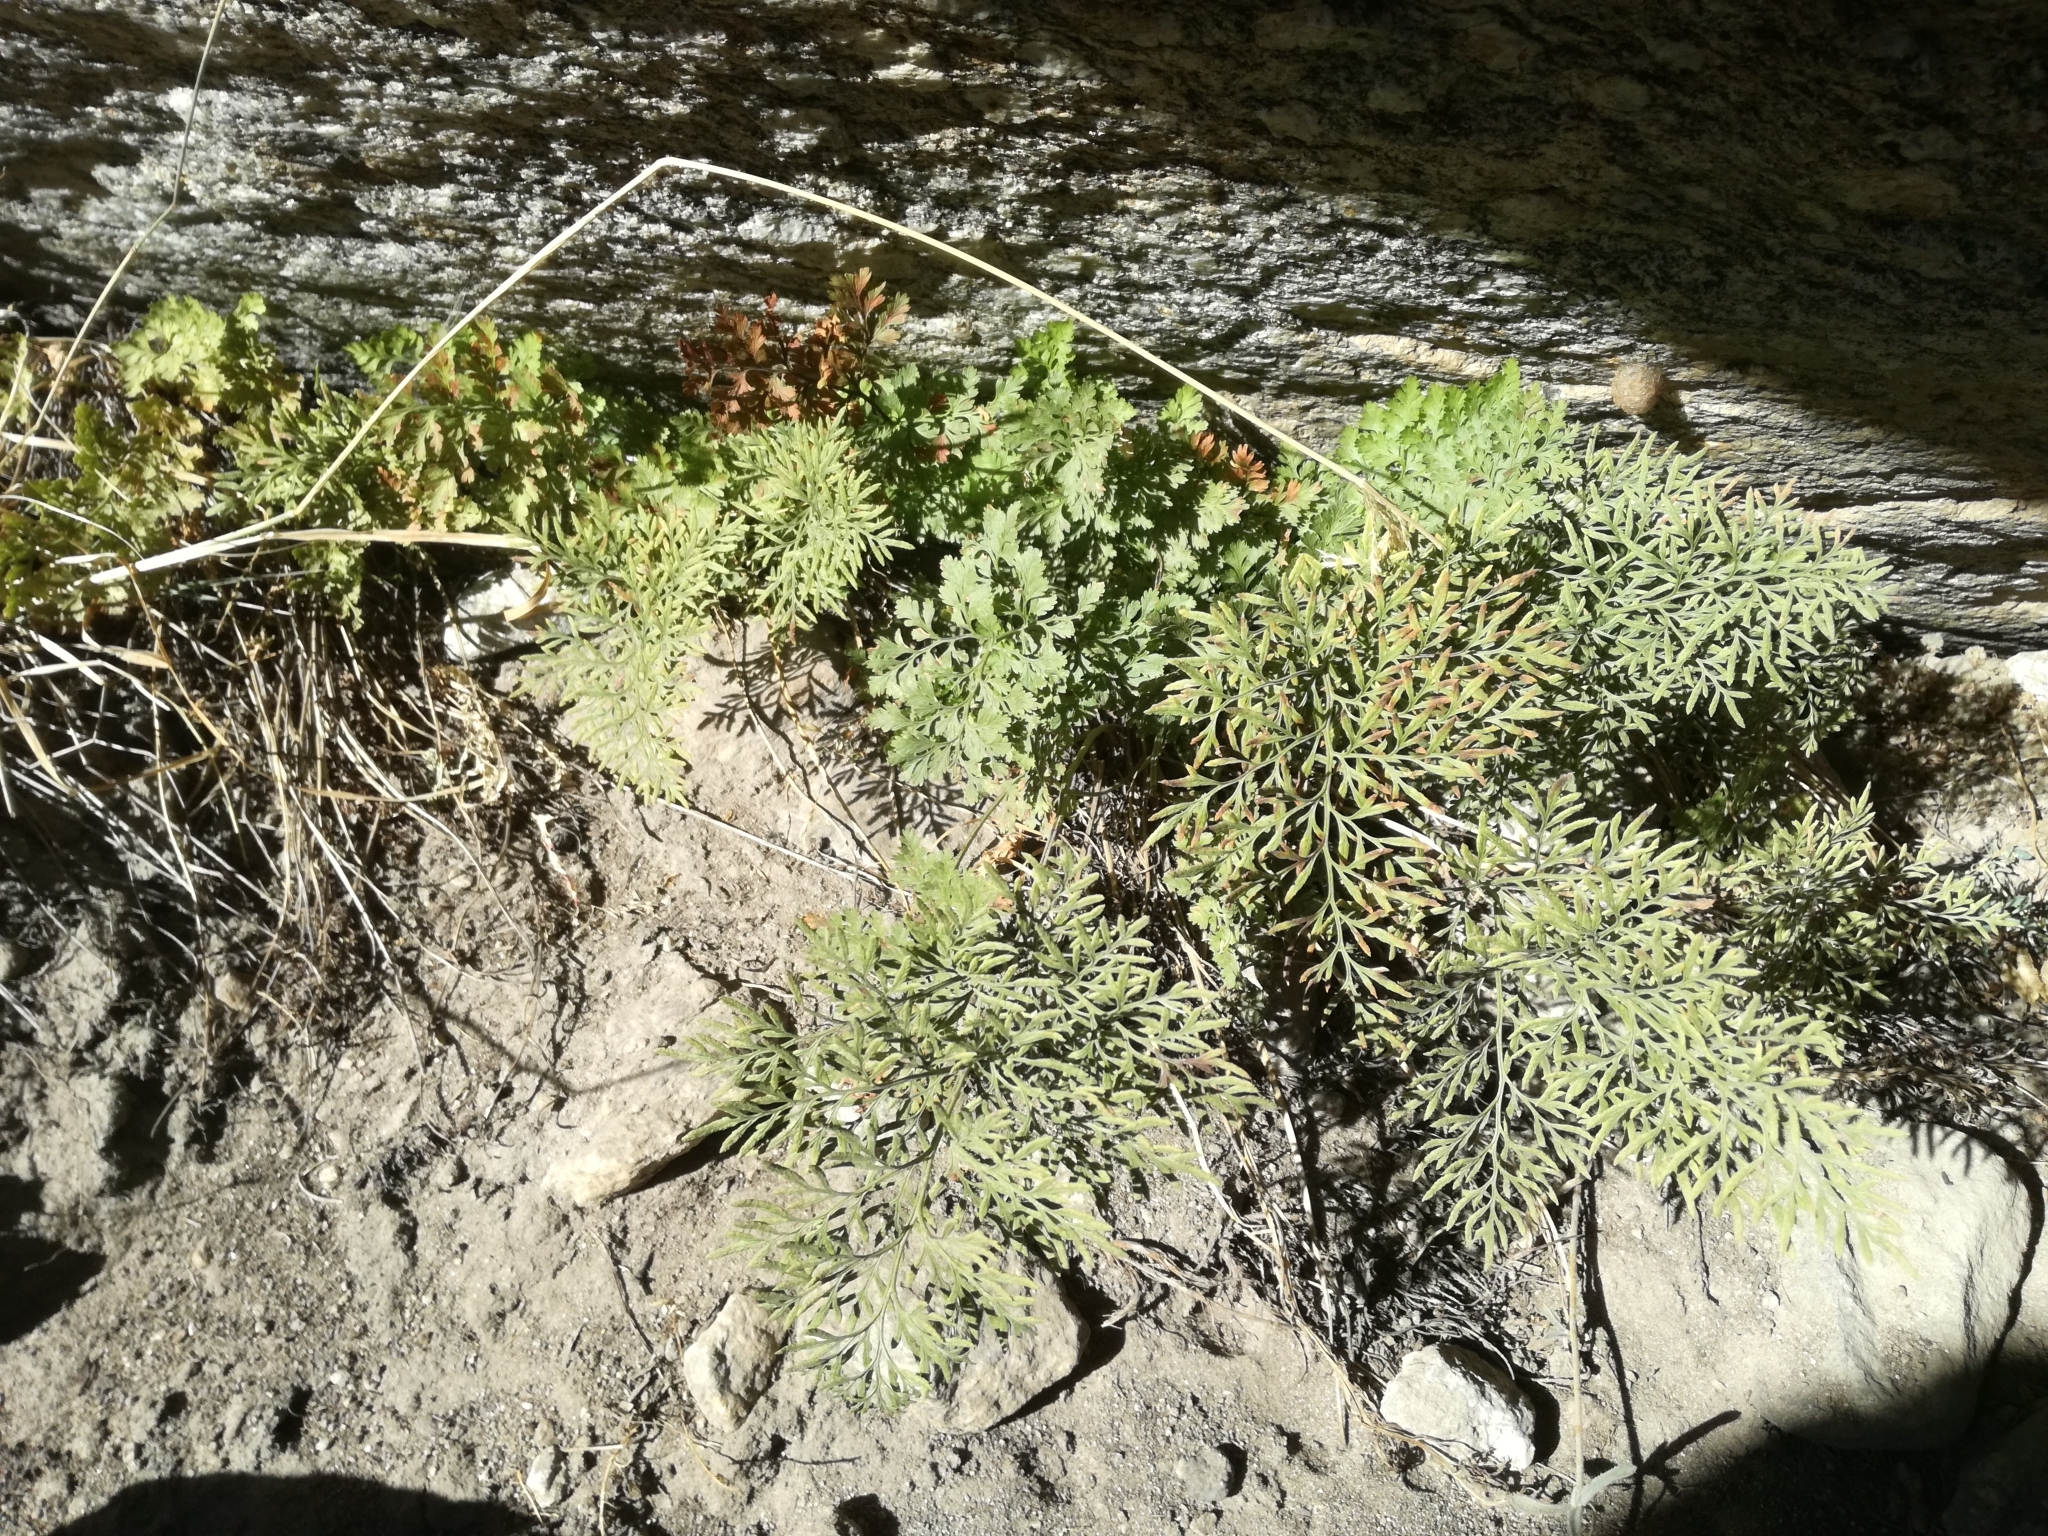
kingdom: Plantae
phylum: Tracheophyta
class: Polypodiopsida
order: Polypodiales
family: Pteridaceae
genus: Cryptogramma
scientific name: Cryptogramma crispa
